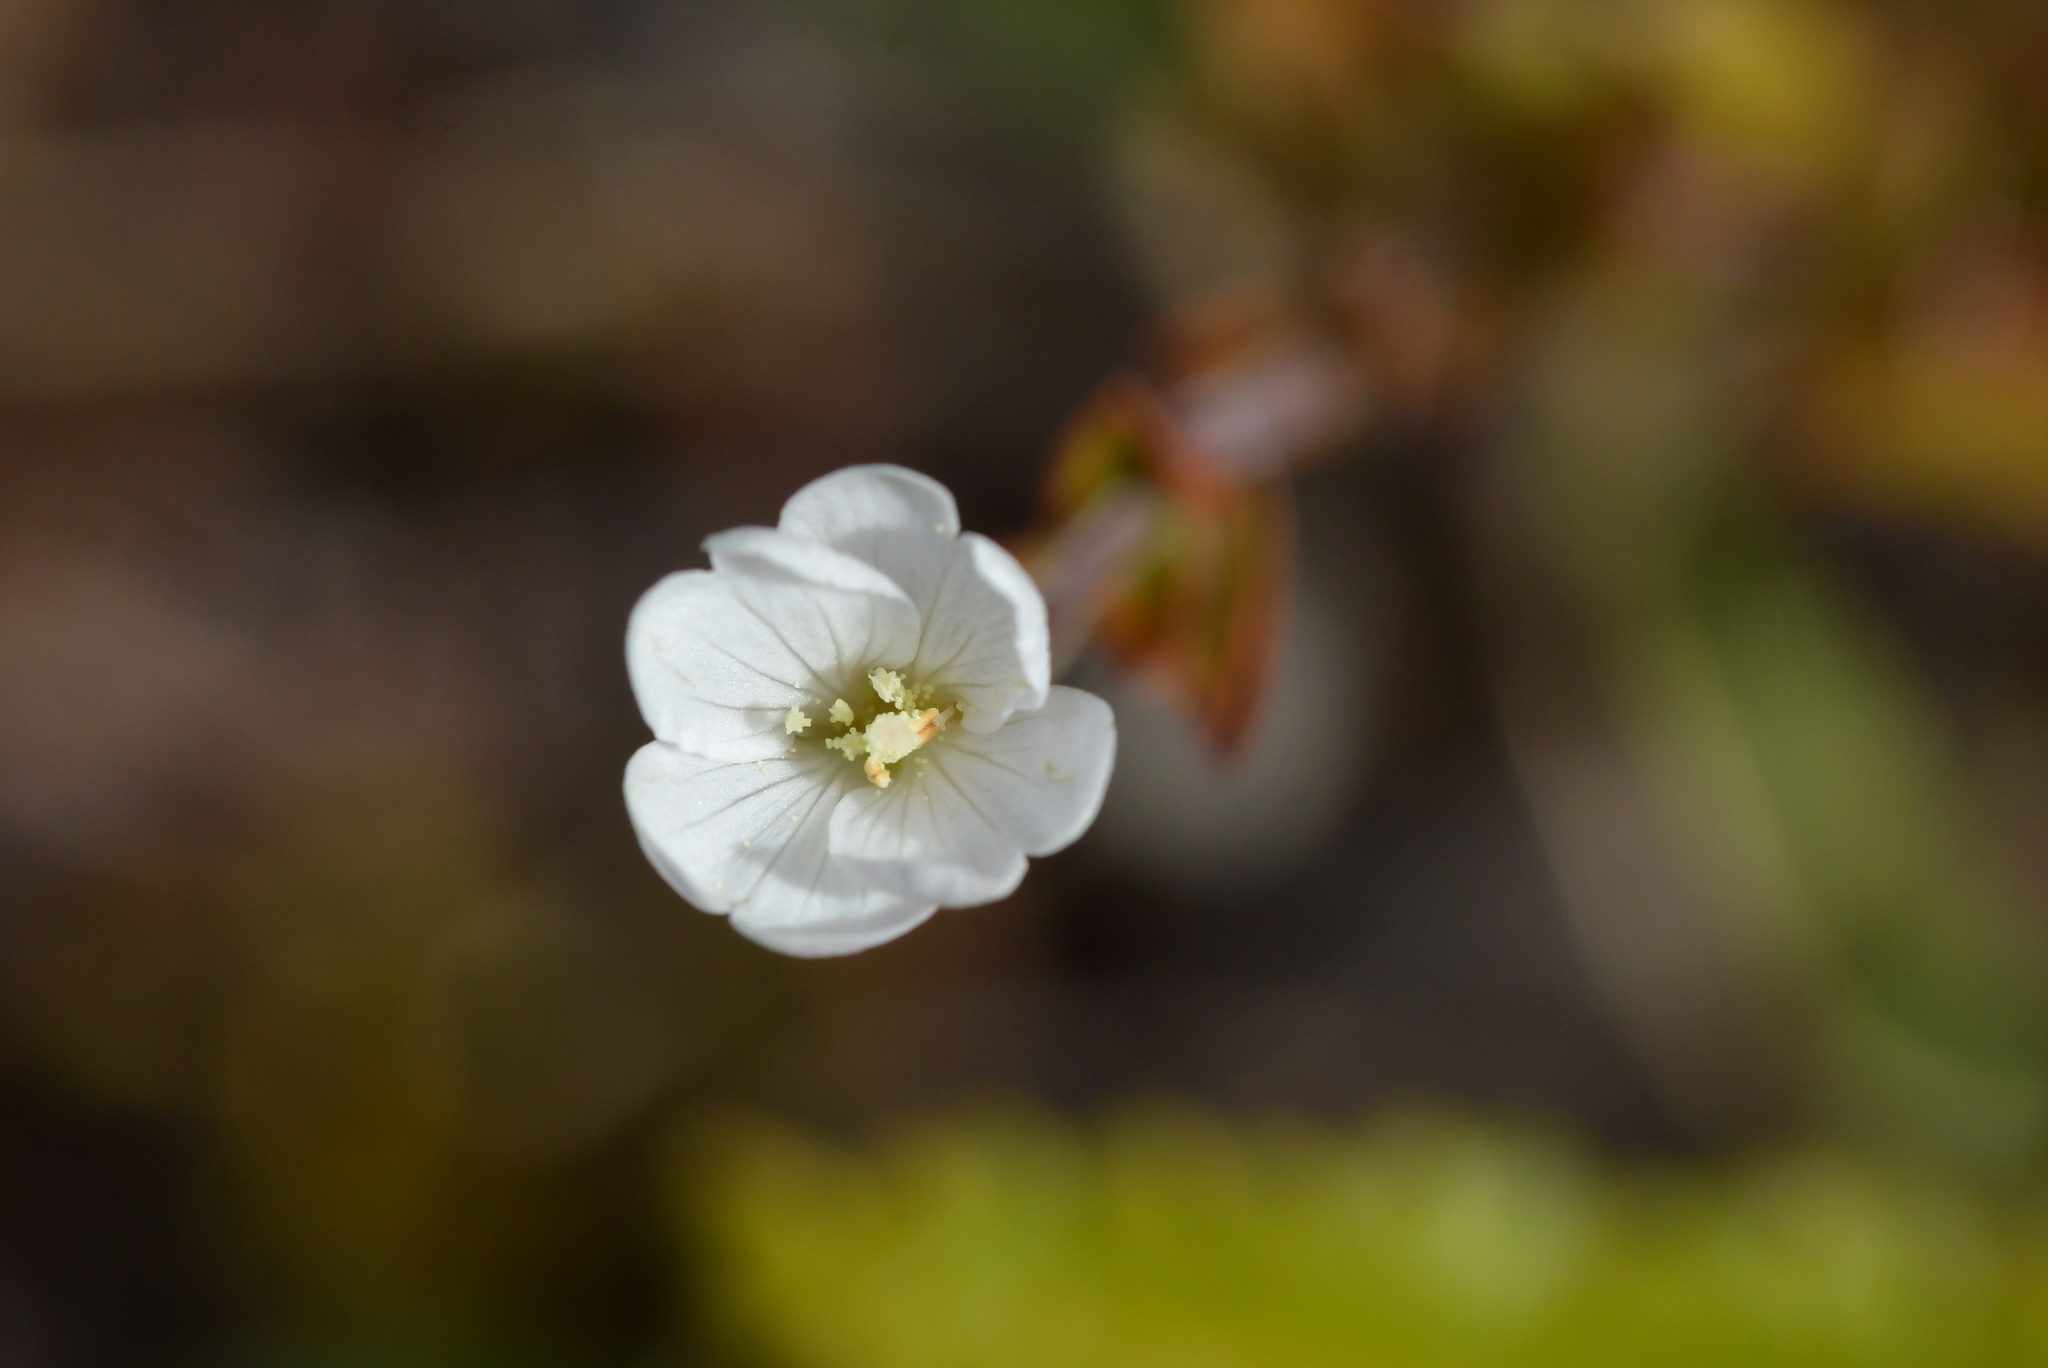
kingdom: Plantae
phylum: Tracheophyta
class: Magnoliopsida
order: Myrtales
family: Onagraceae
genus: Epilobium
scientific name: Epilobium chlorifolium
